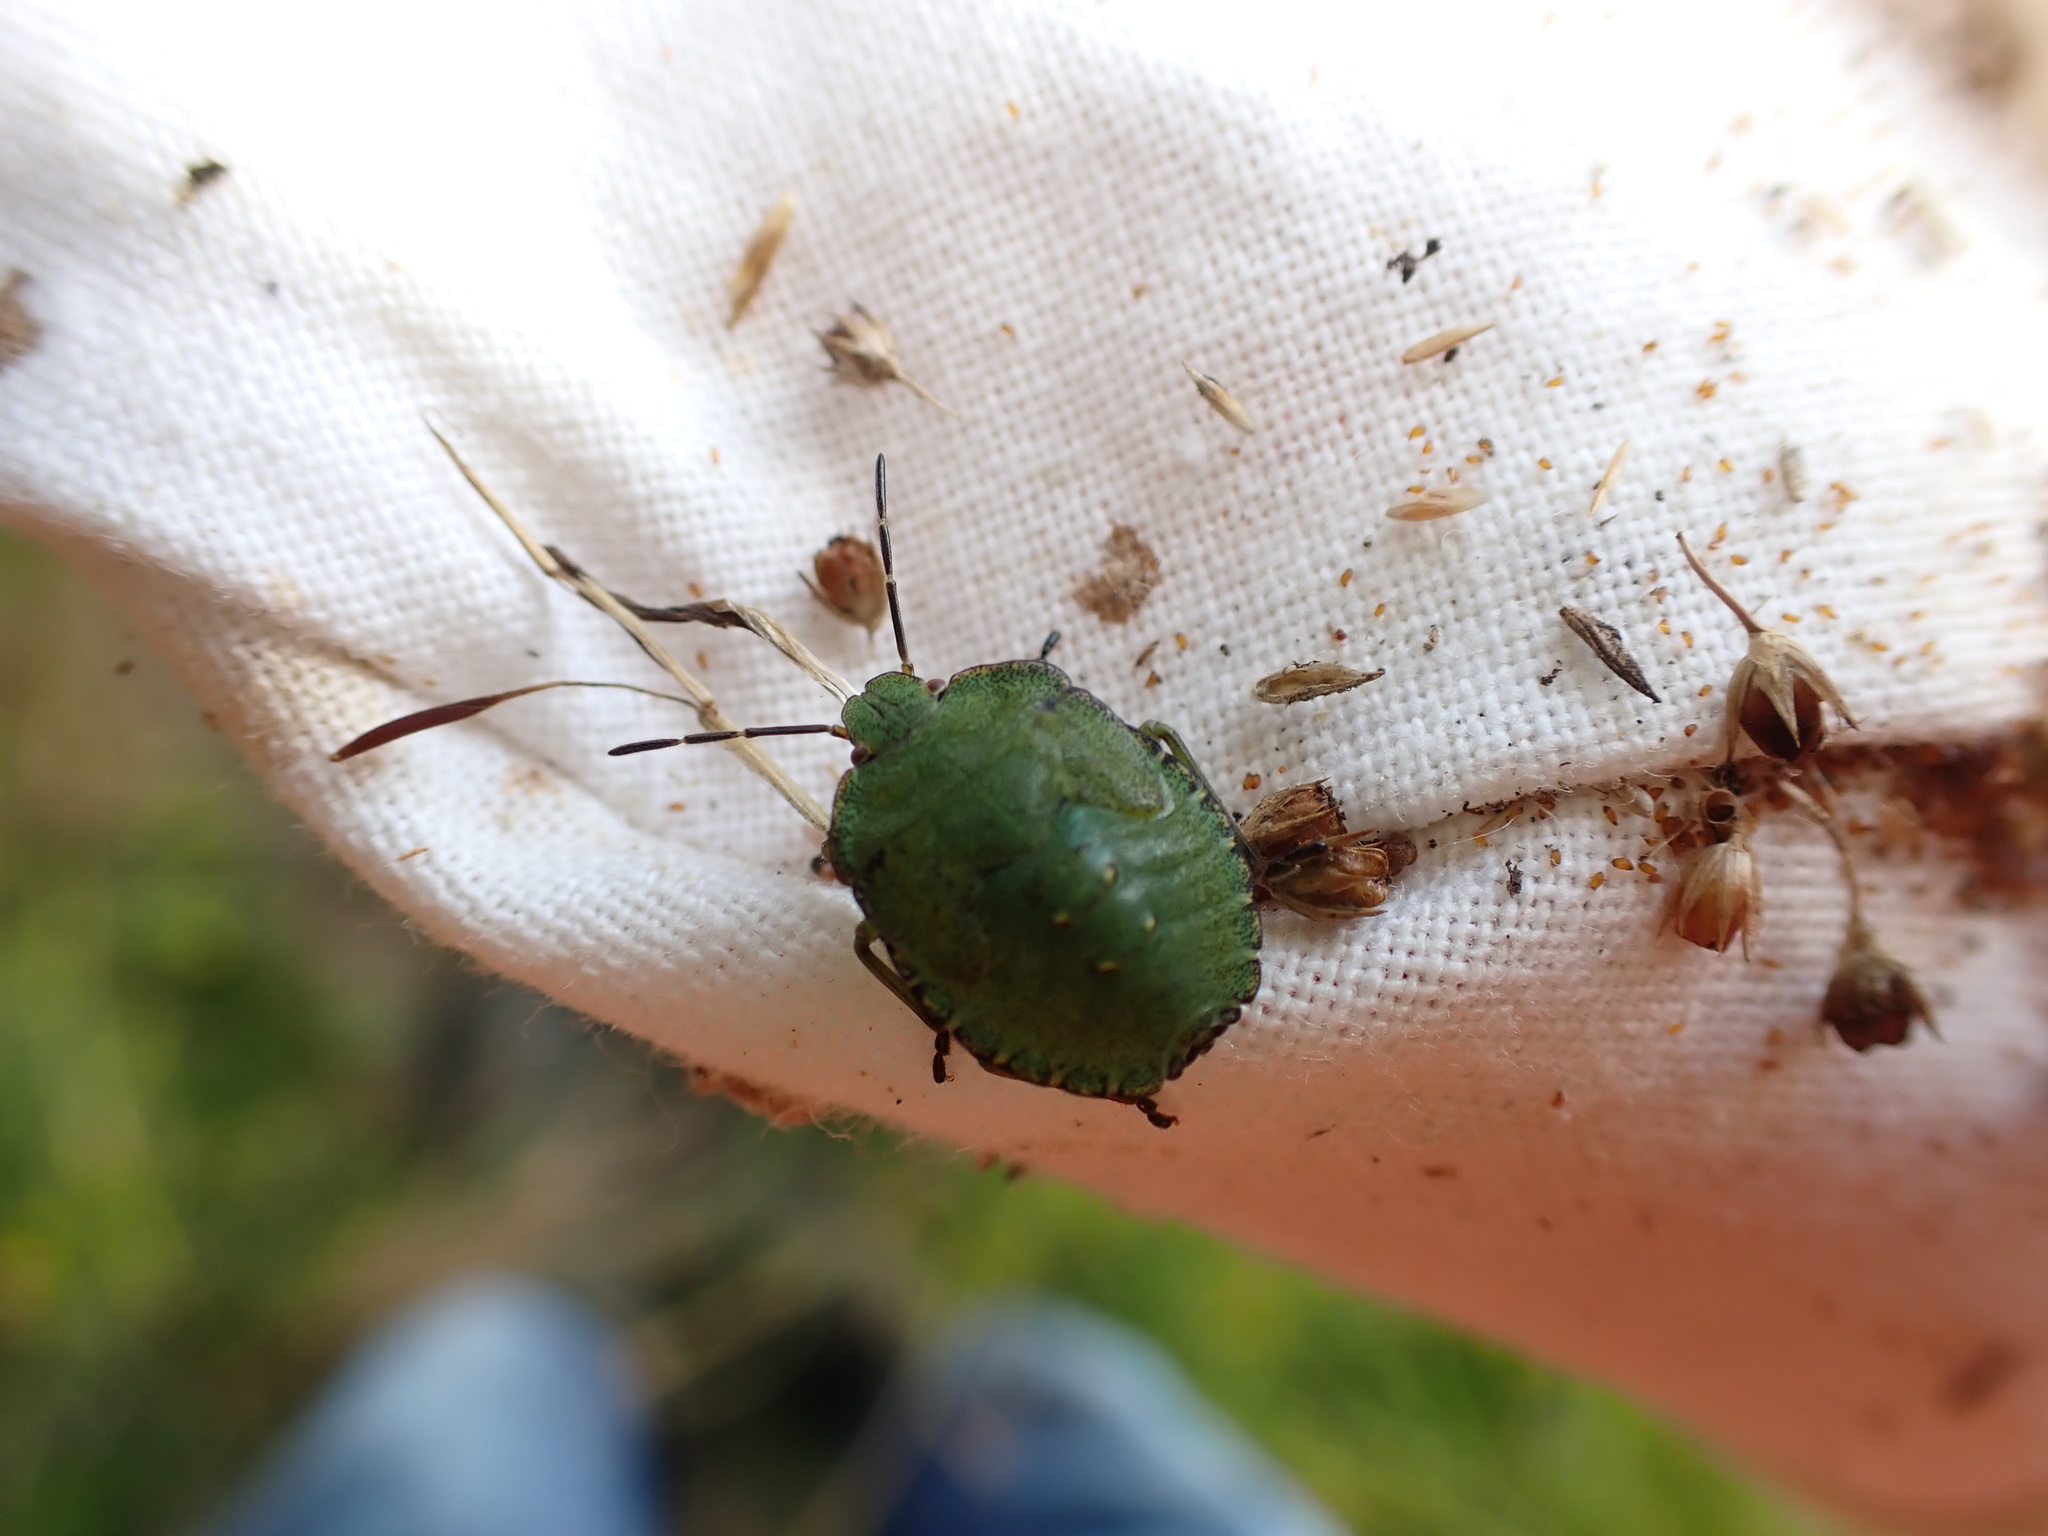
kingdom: Animalia
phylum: Arthropoda
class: Insecta
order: Hemiptera
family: Pentatomidae
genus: Palomena
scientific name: Palomena prasina
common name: Green shieldbug
